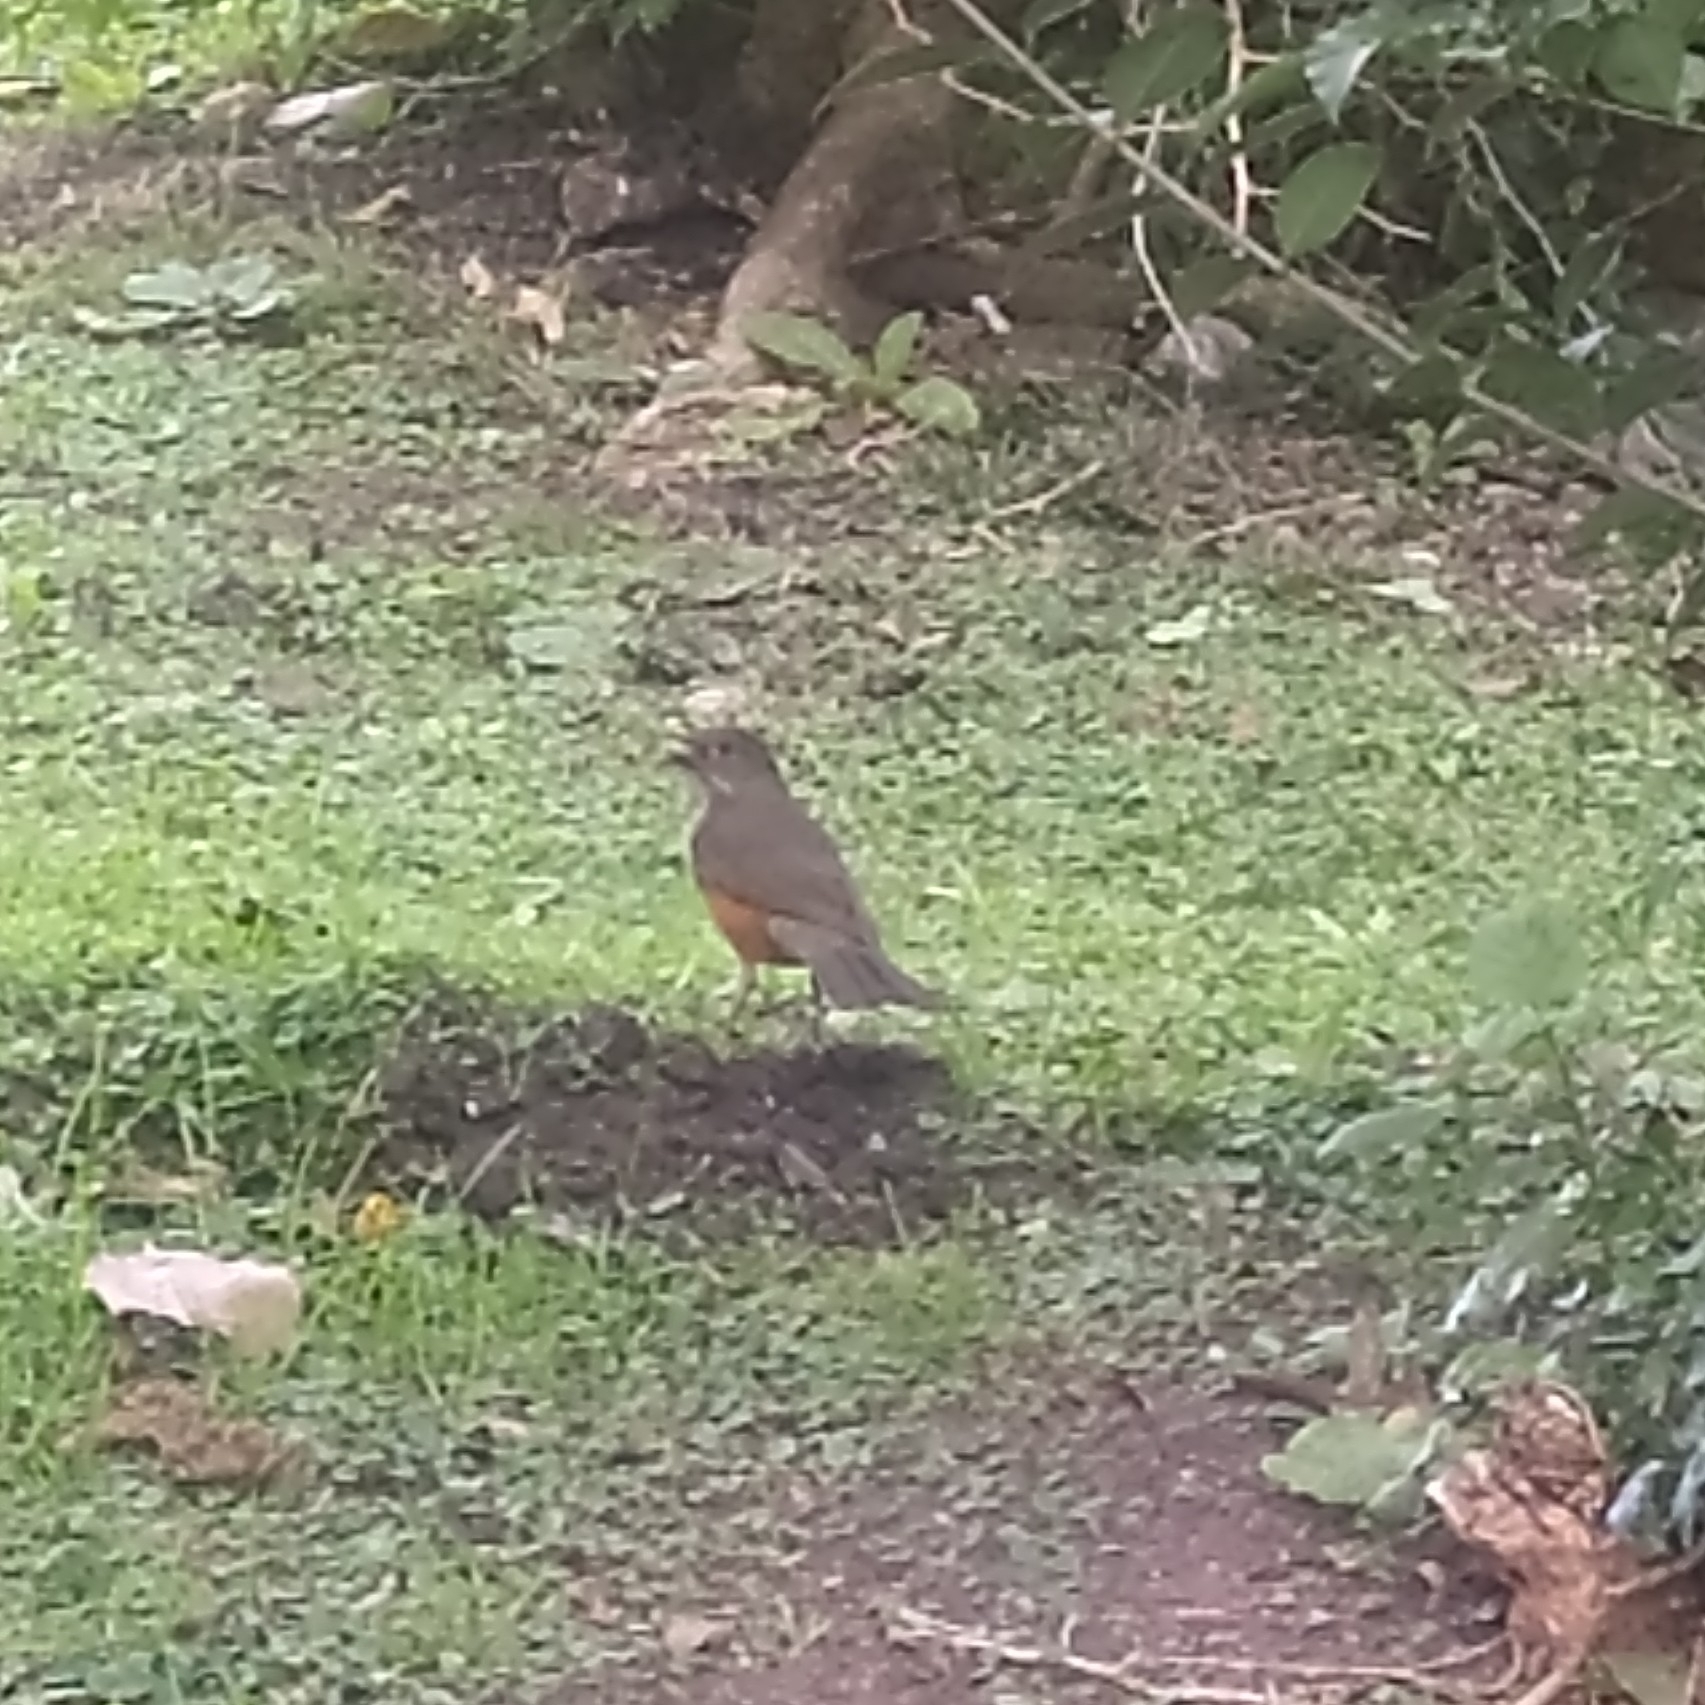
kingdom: Animalia
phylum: Chordata
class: Aves
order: Passeriformes
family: Turdidae
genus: Turdus
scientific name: Turdus rufiventris
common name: Rufous-bellied thrush
